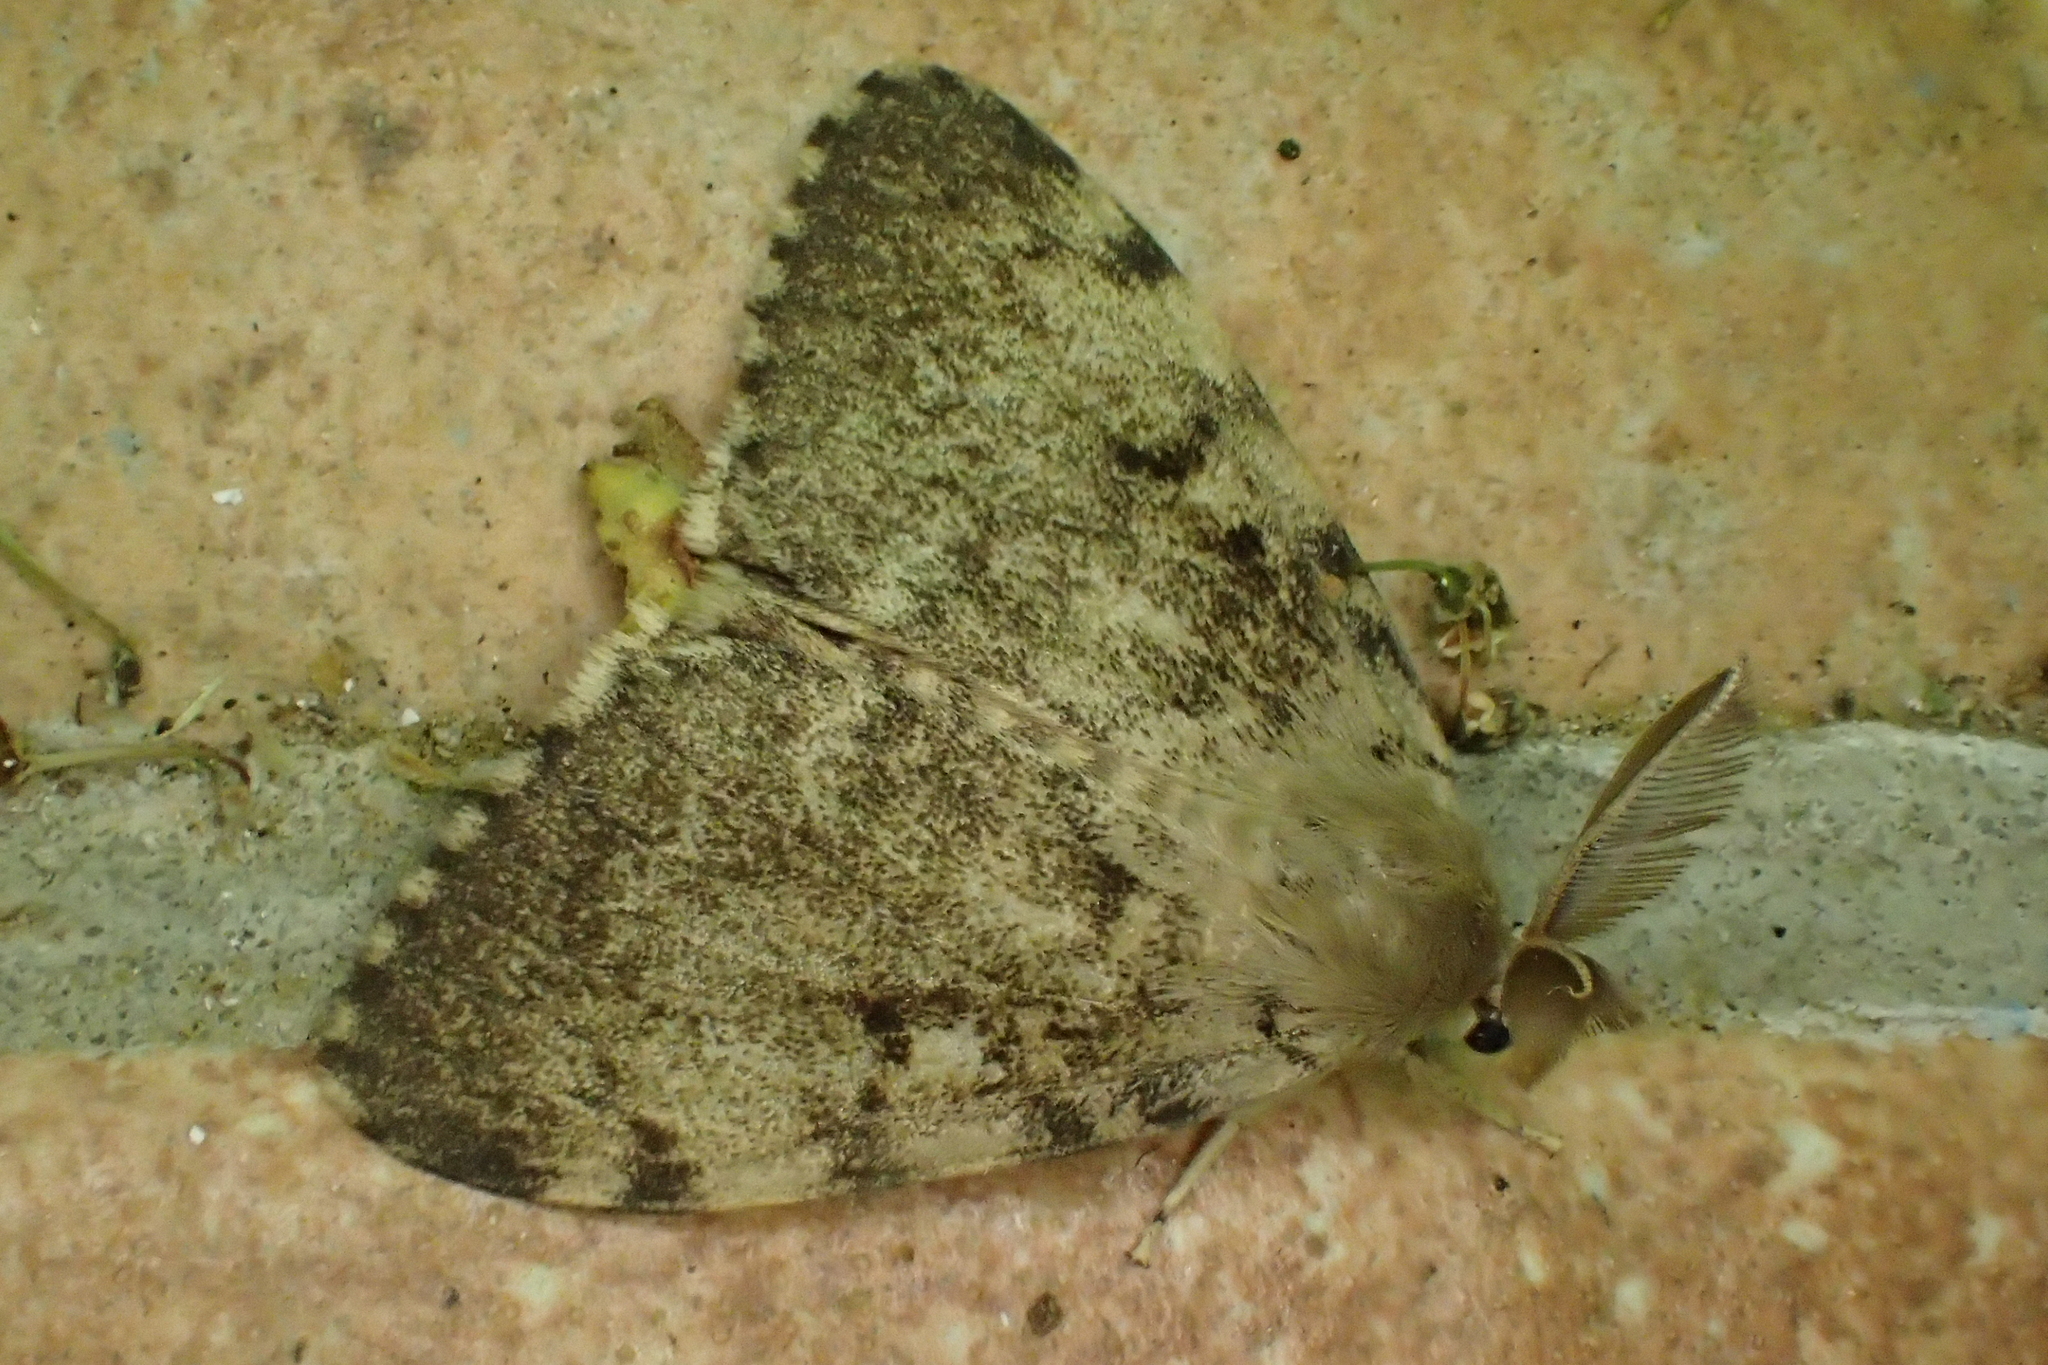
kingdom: Animalia
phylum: Arthropoda
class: Insecta
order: Lepidoptera
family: Erebidae
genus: Lymantria
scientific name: Lymantria dispar
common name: Gypsy moth
